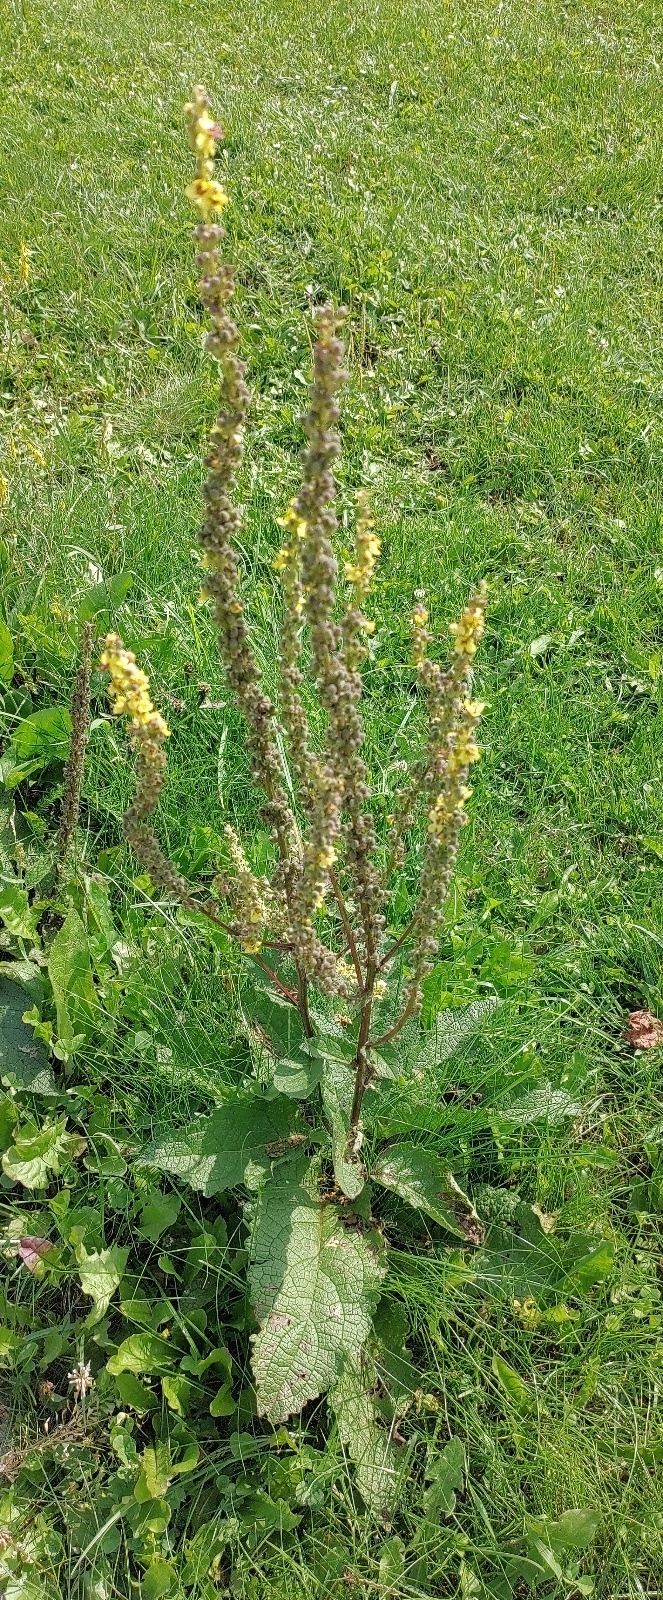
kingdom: Plantae
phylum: Tracheophyta
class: Magnoliopsida
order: Lamiales
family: Scrophulariaceae
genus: Verbascum
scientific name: Verbascum nigrum
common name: Dark mullein
